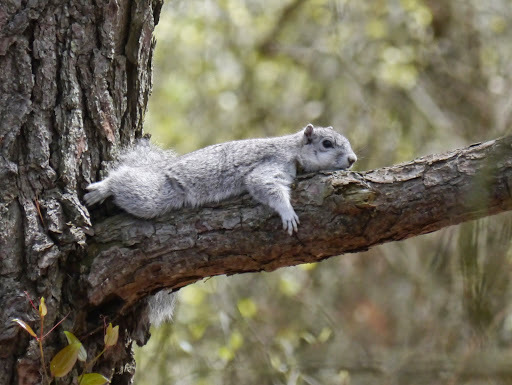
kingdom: Animalia
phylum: Chordata
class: Mammalia
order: Rodentia
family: Sciuridae
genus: Sciurus
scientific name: Sciurus niger
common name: Fox squirrel
